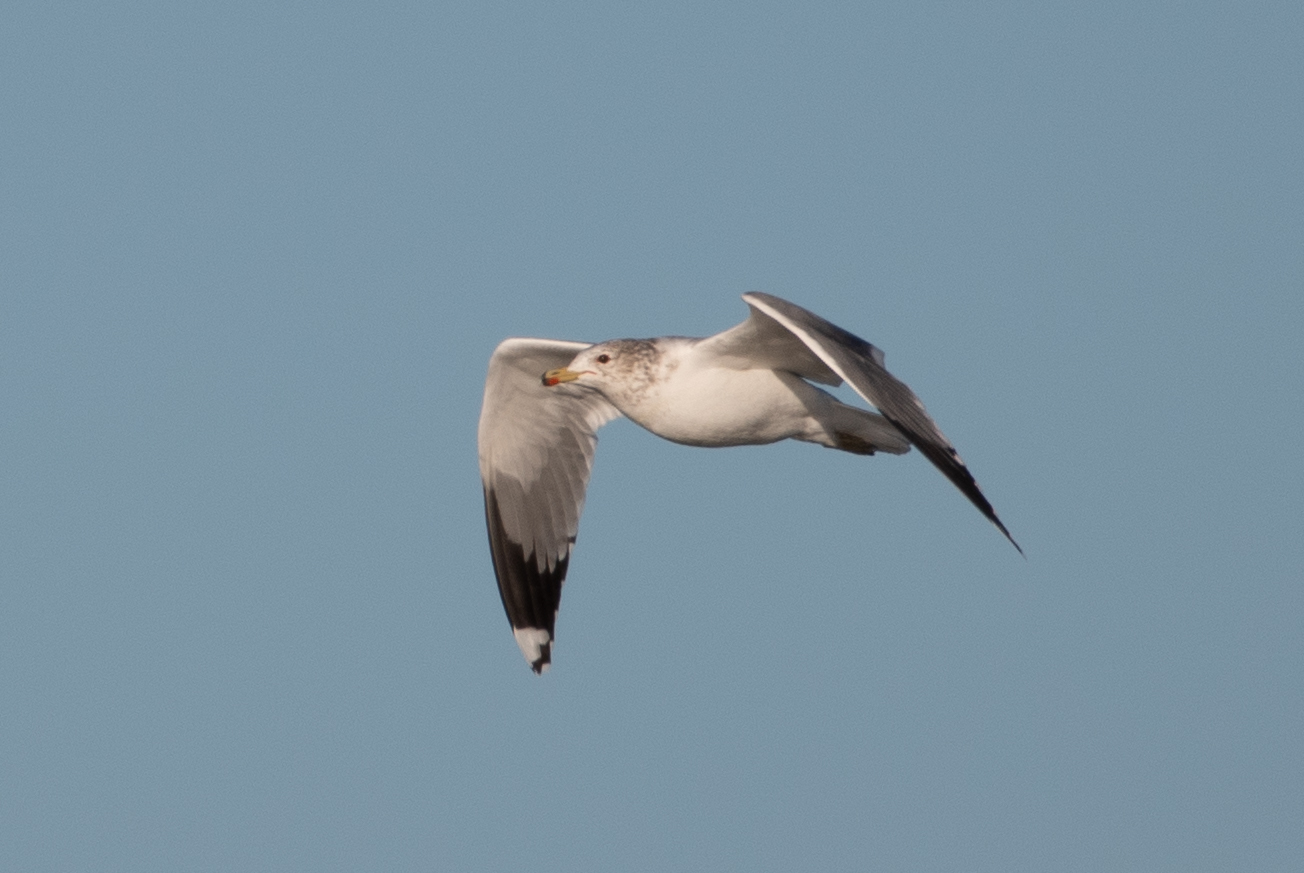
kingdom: Animalia
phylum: Chordata
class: Aves
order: Charadriiformes
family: Laridae
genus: Larus
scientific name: Larus californicus
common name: California gull
